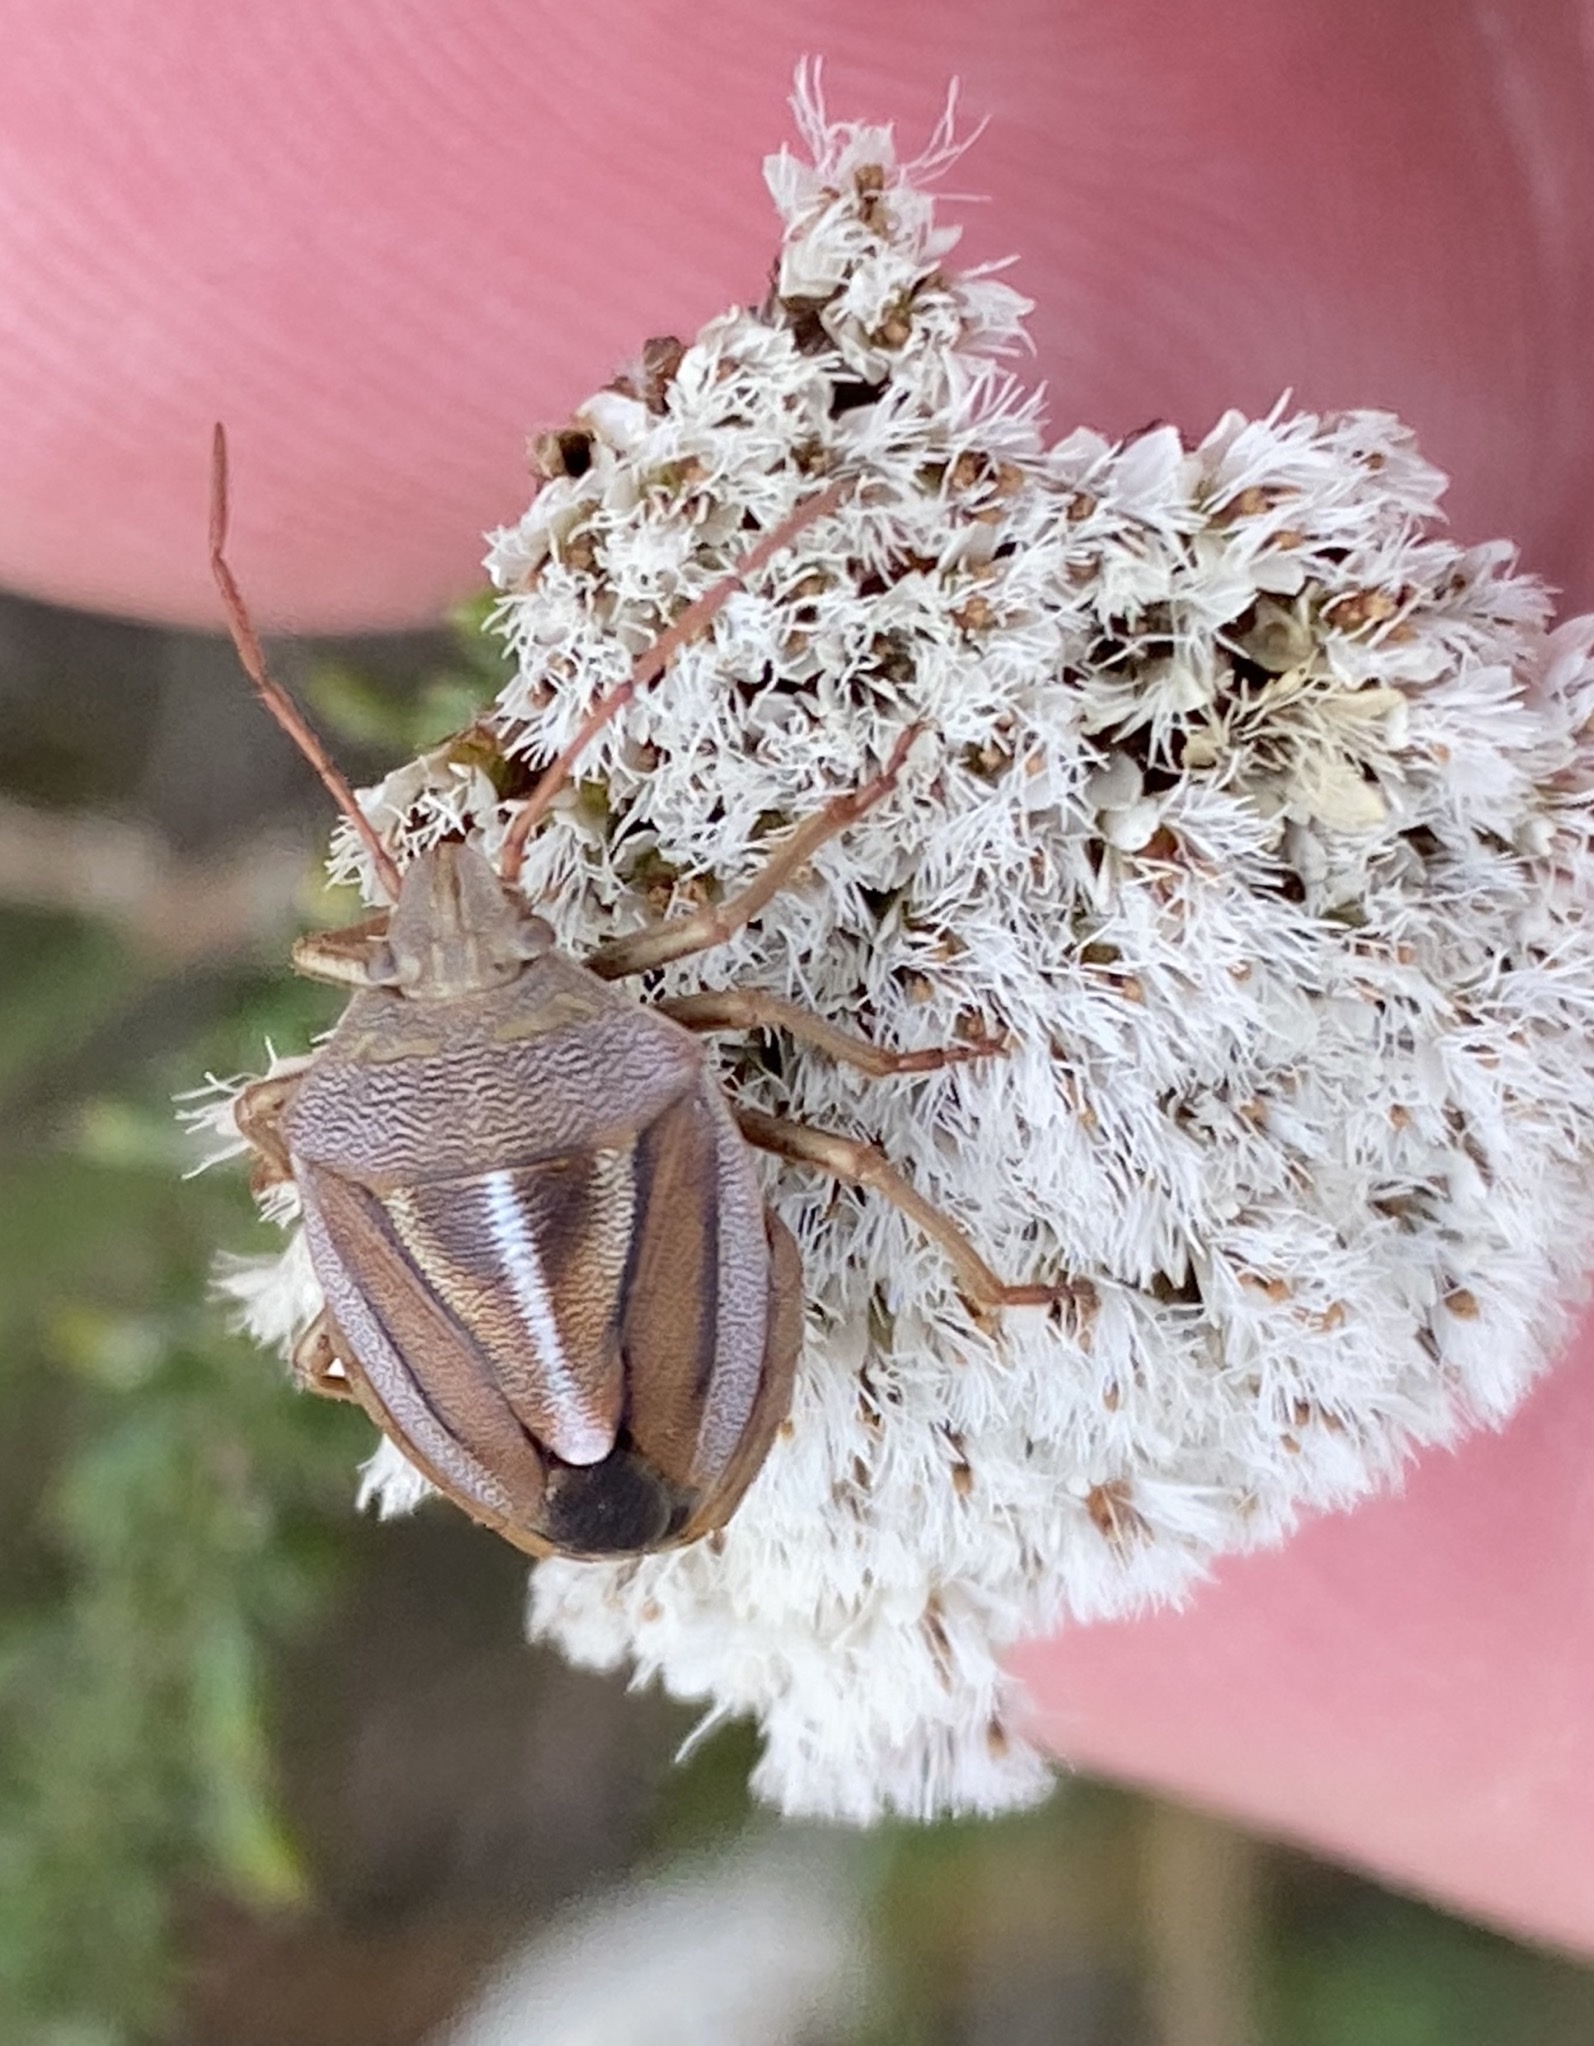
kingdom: Animalia
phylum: Arthropoda
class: Insecta
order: Hemiptera
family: Pentatomidae
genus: Theloris
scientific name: Theloris costata
